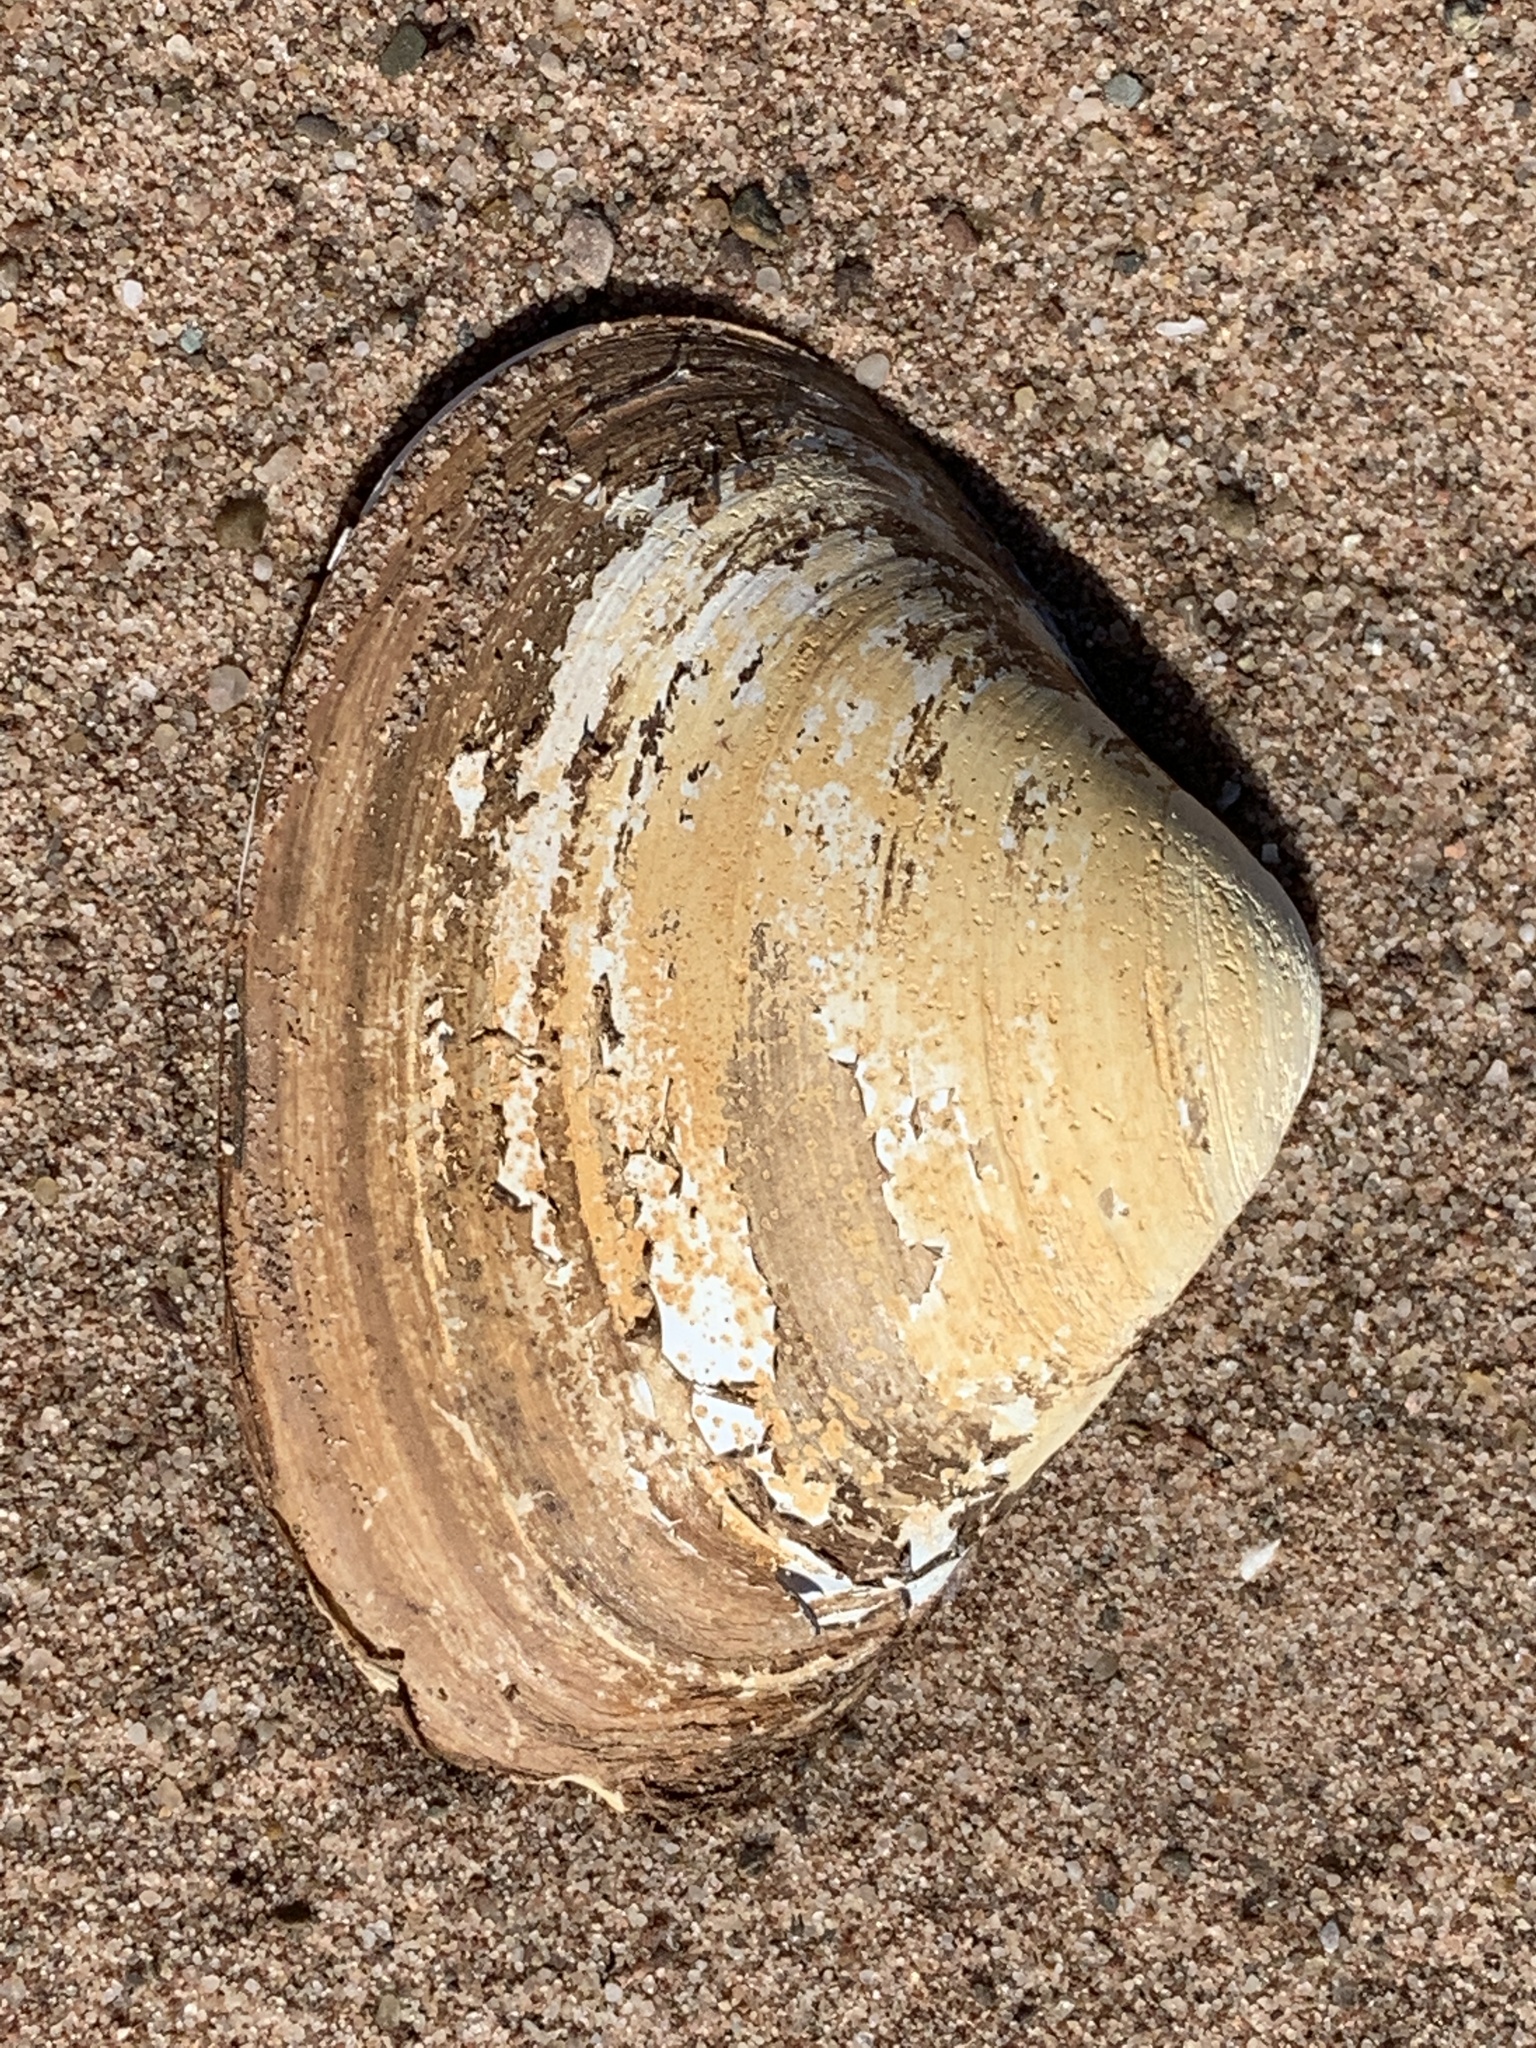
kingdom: Animalia
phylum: Mollusca
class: Bivalvia
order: Venerida
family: Mactridae
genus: Spisula
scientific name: Spisula solidissima
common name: Atlantic surf clam
